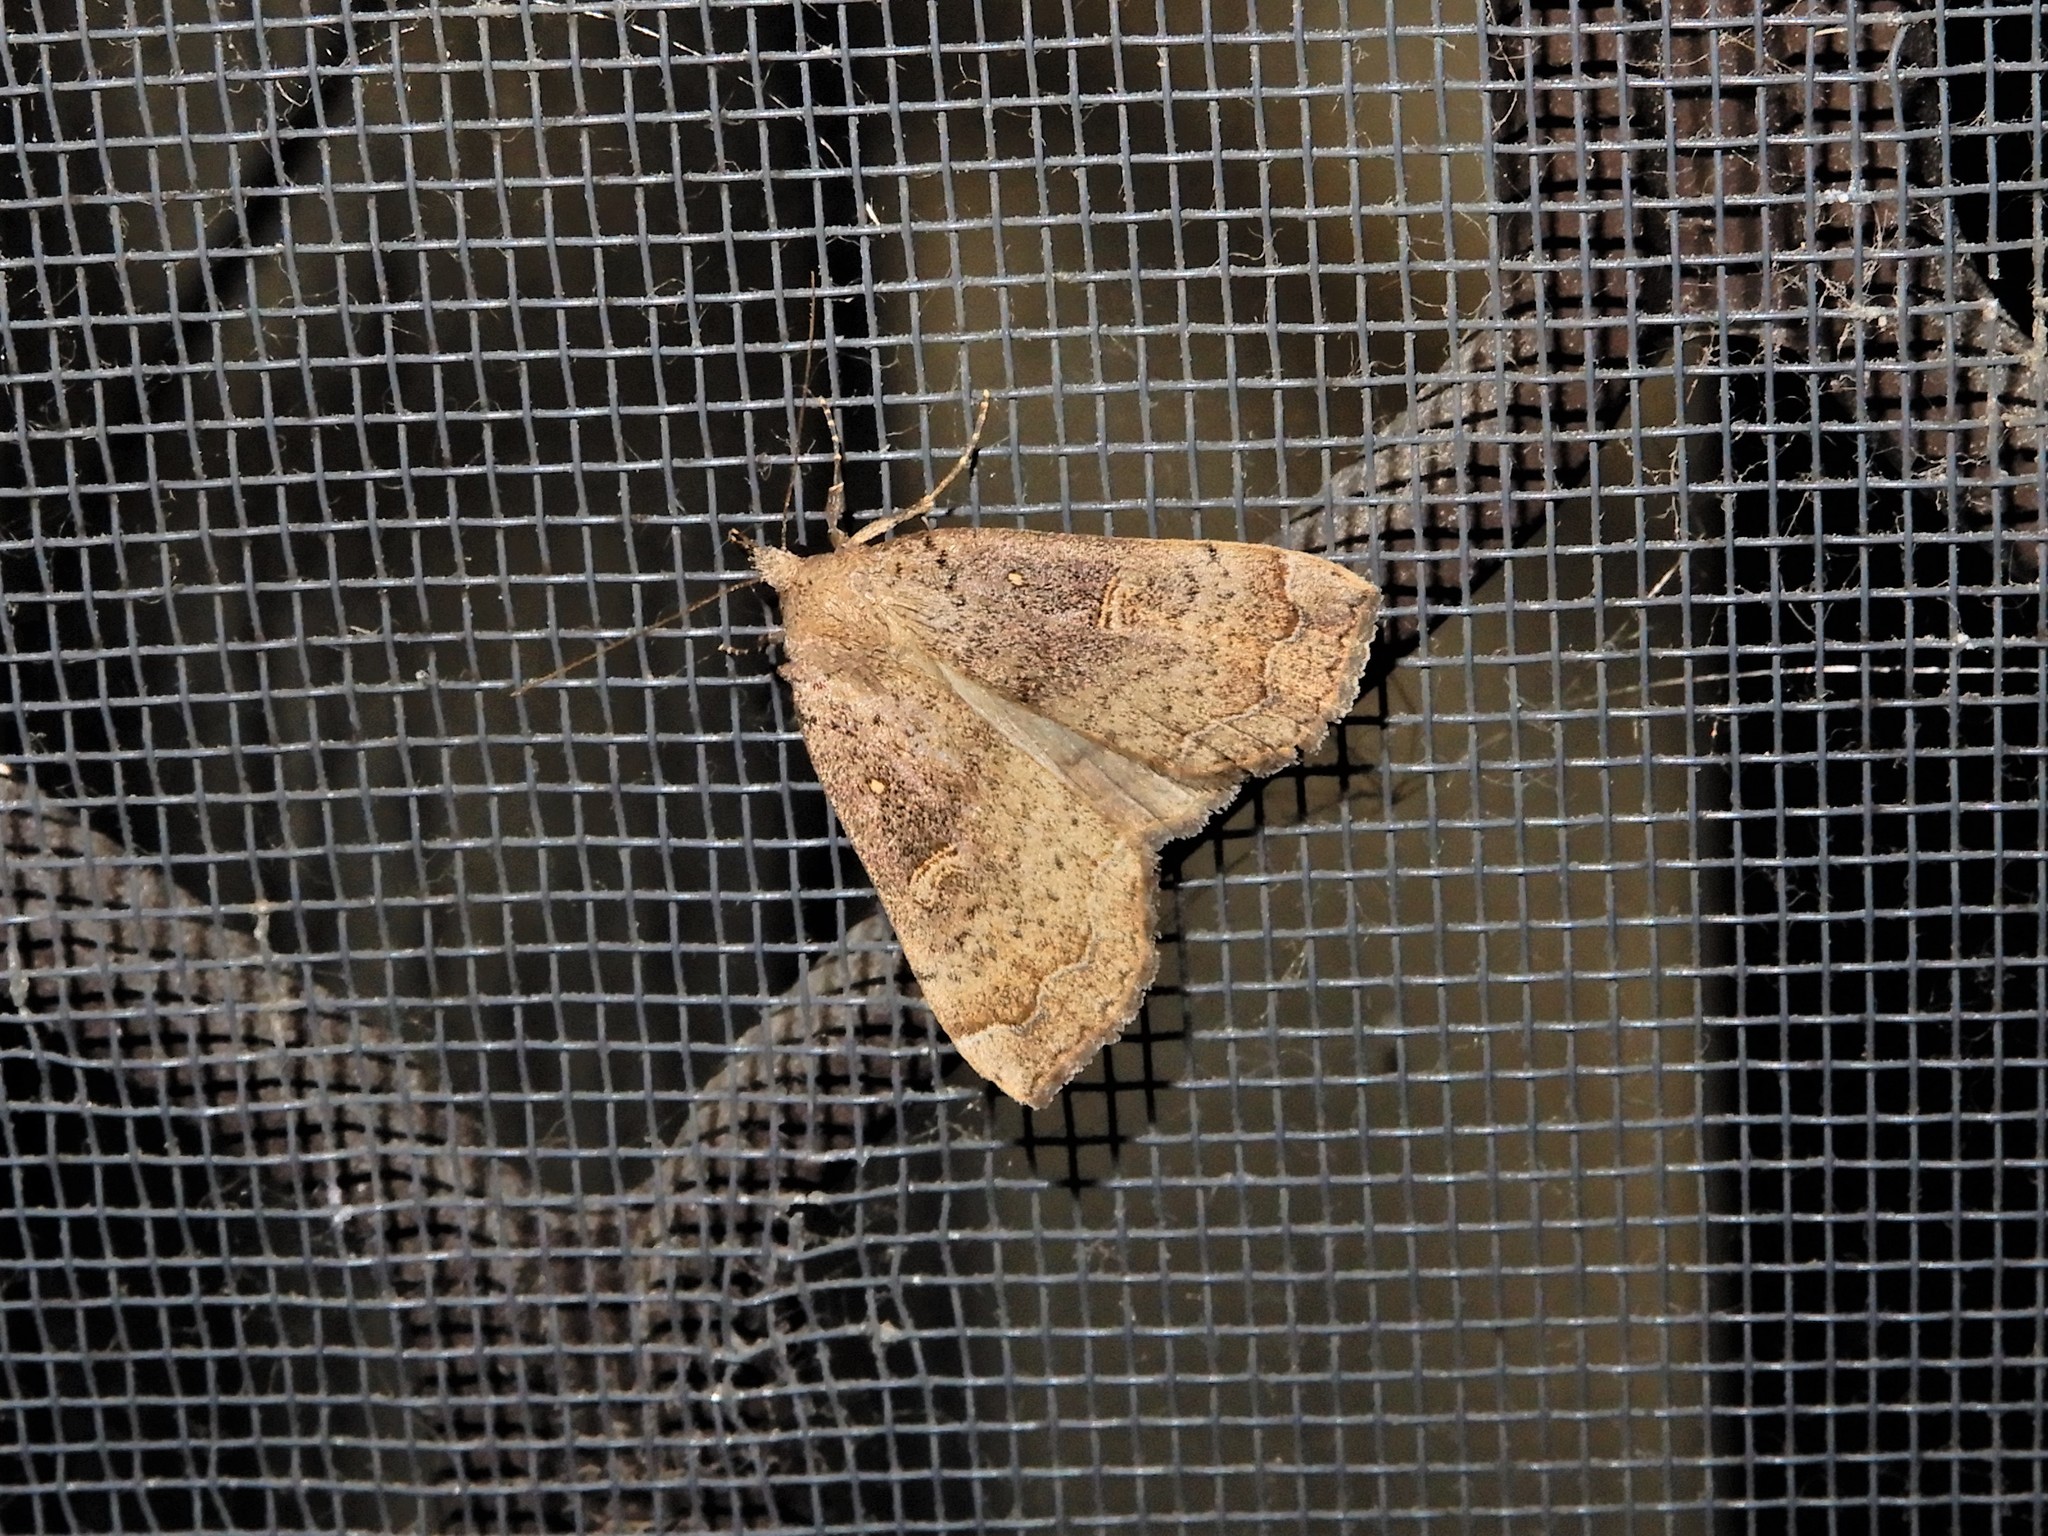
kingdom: Animalia
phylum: Arthropoda
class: Insecta
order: Lepidoptera
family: Erebidae
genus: Rhapsa
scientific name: Rhapsa scotosialis
